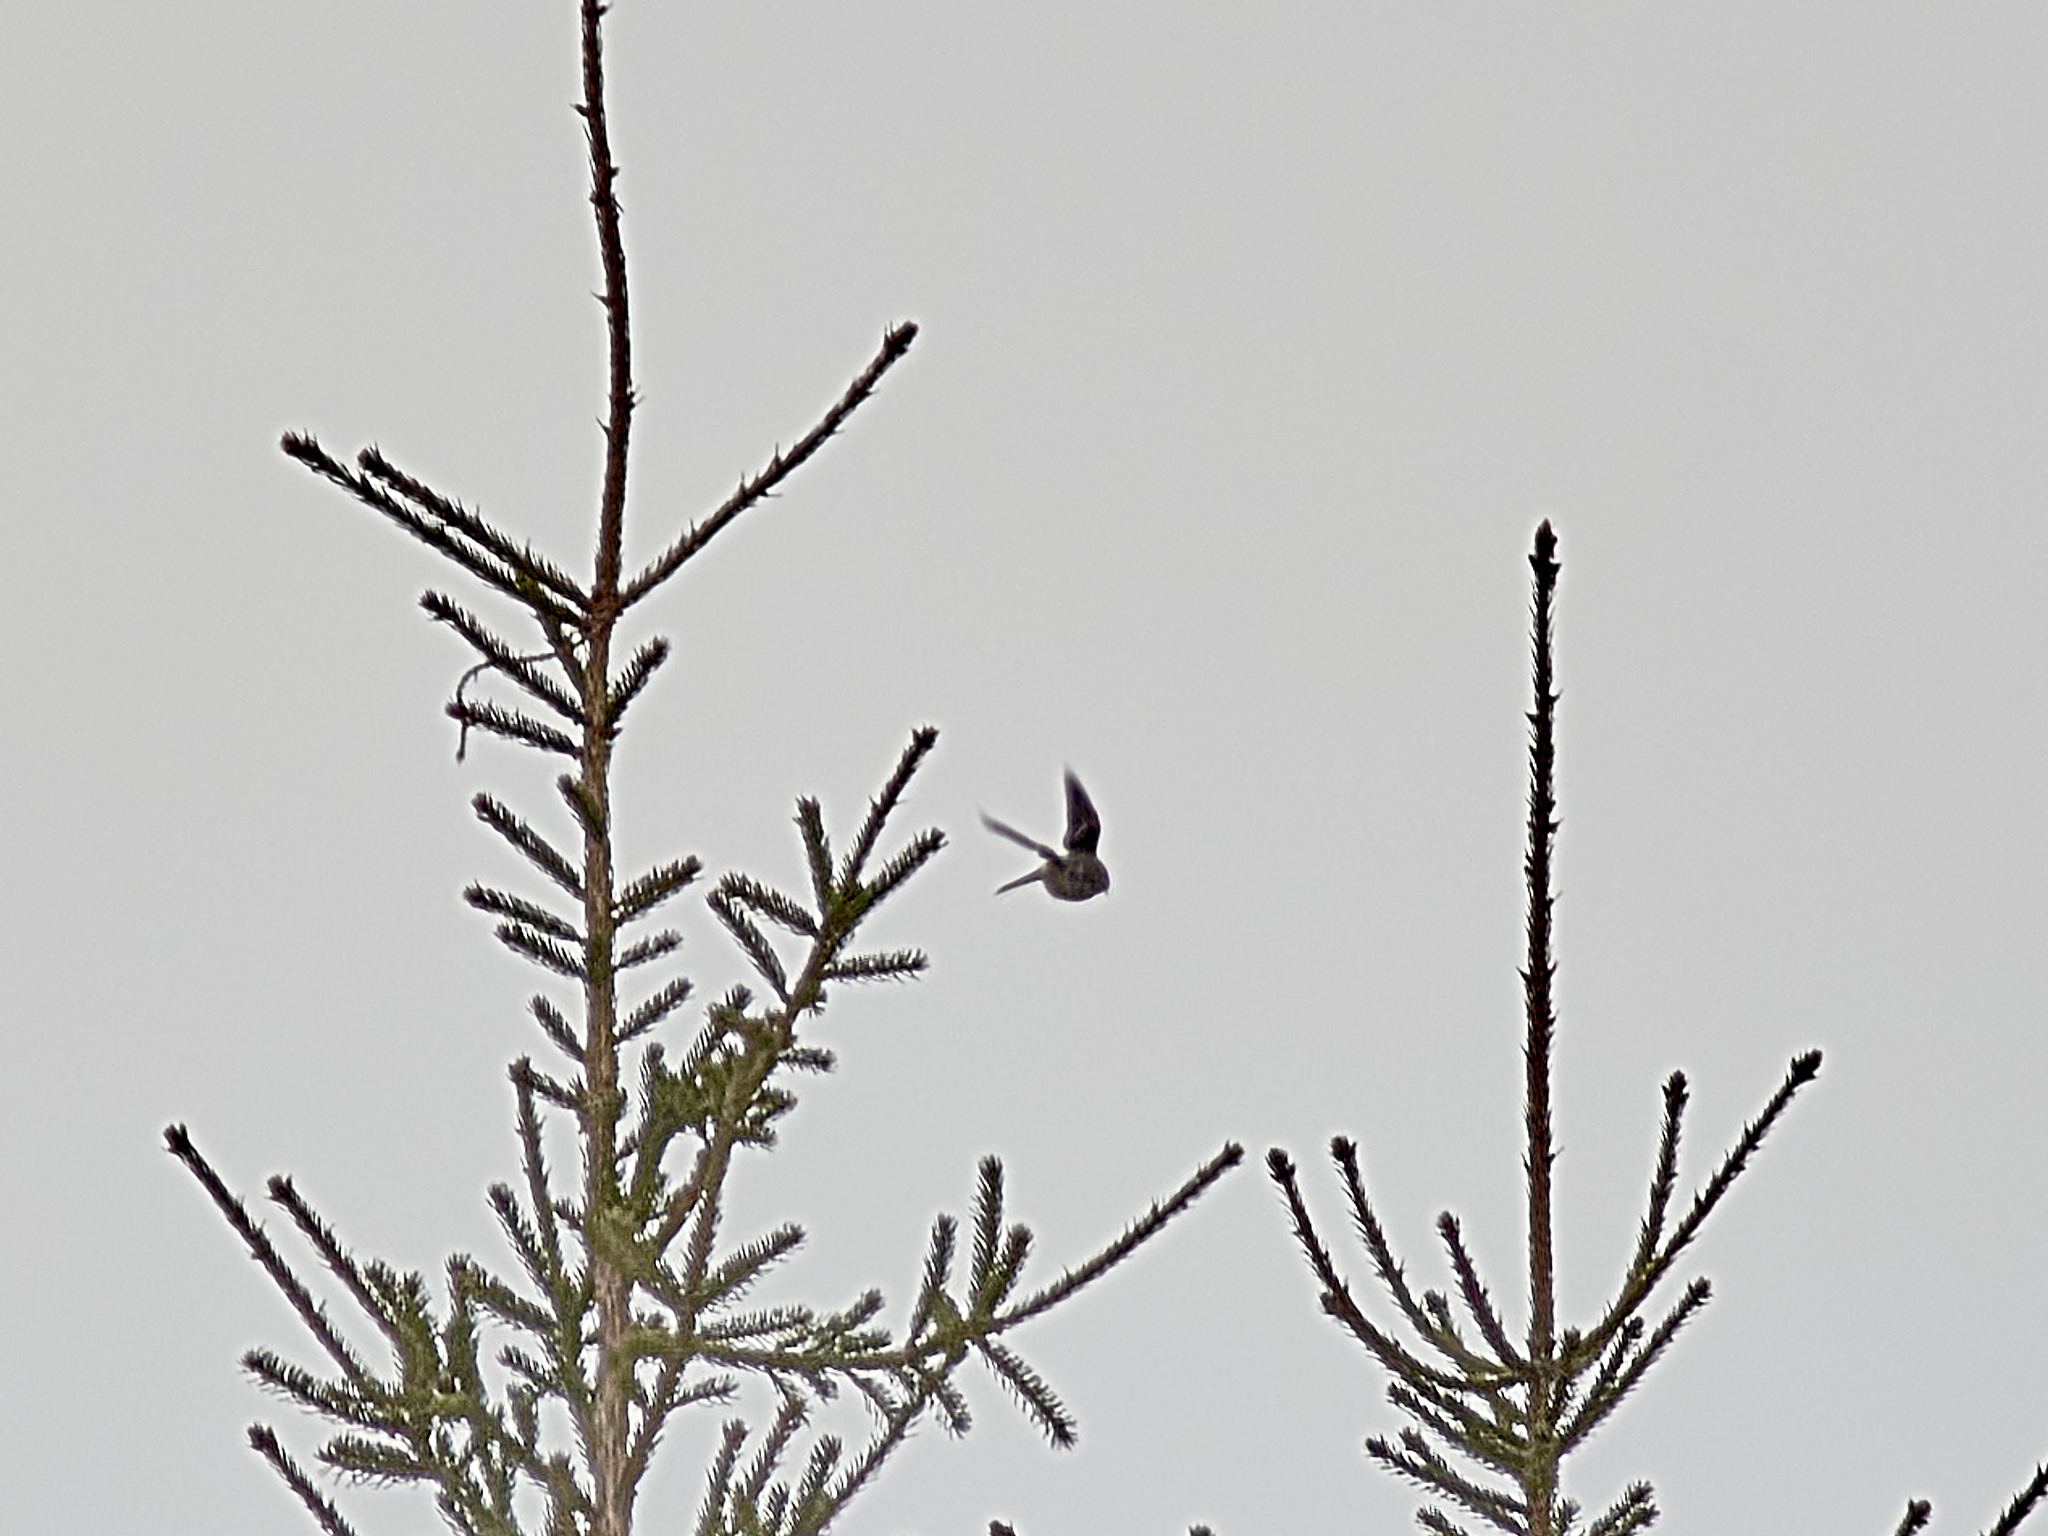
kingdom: Animalia
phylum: Chordata
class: Aves
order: Passeriformes
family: Fringillidae
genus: Loxia
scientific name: Loxia curvirostra
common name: Red crossbill
